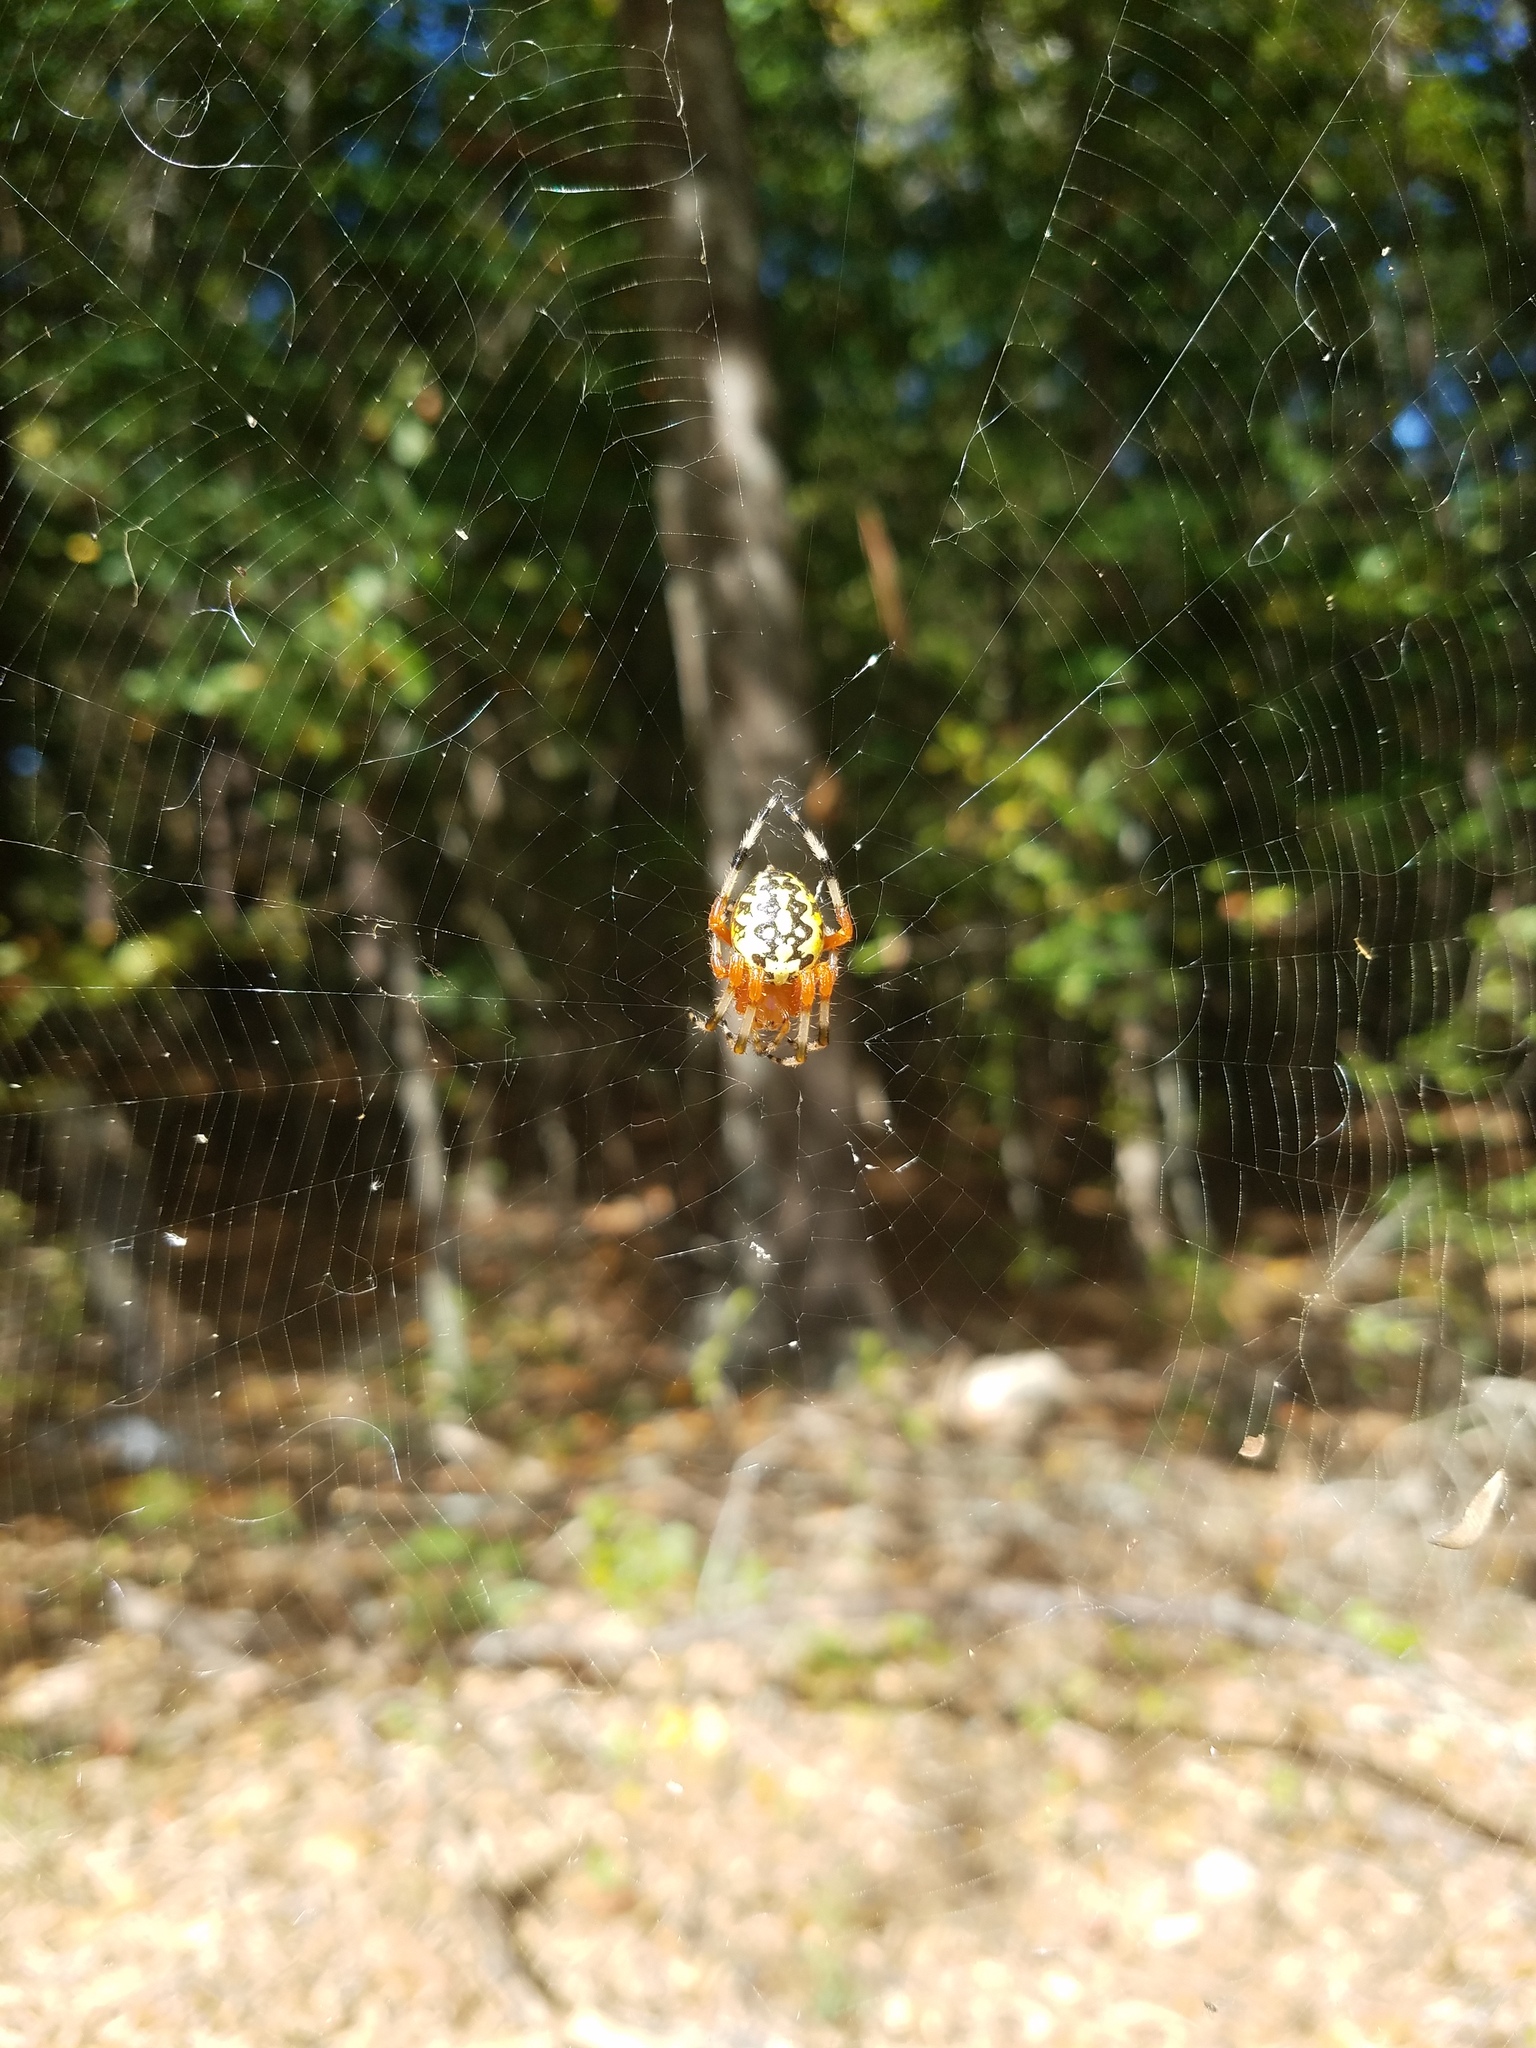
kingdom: Animalia
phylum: Arthropoda
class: Arachnida
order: Araneae
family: Araneidae
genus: Araneus
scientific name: Araneus marmoreus
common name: Marbled orbweaver
